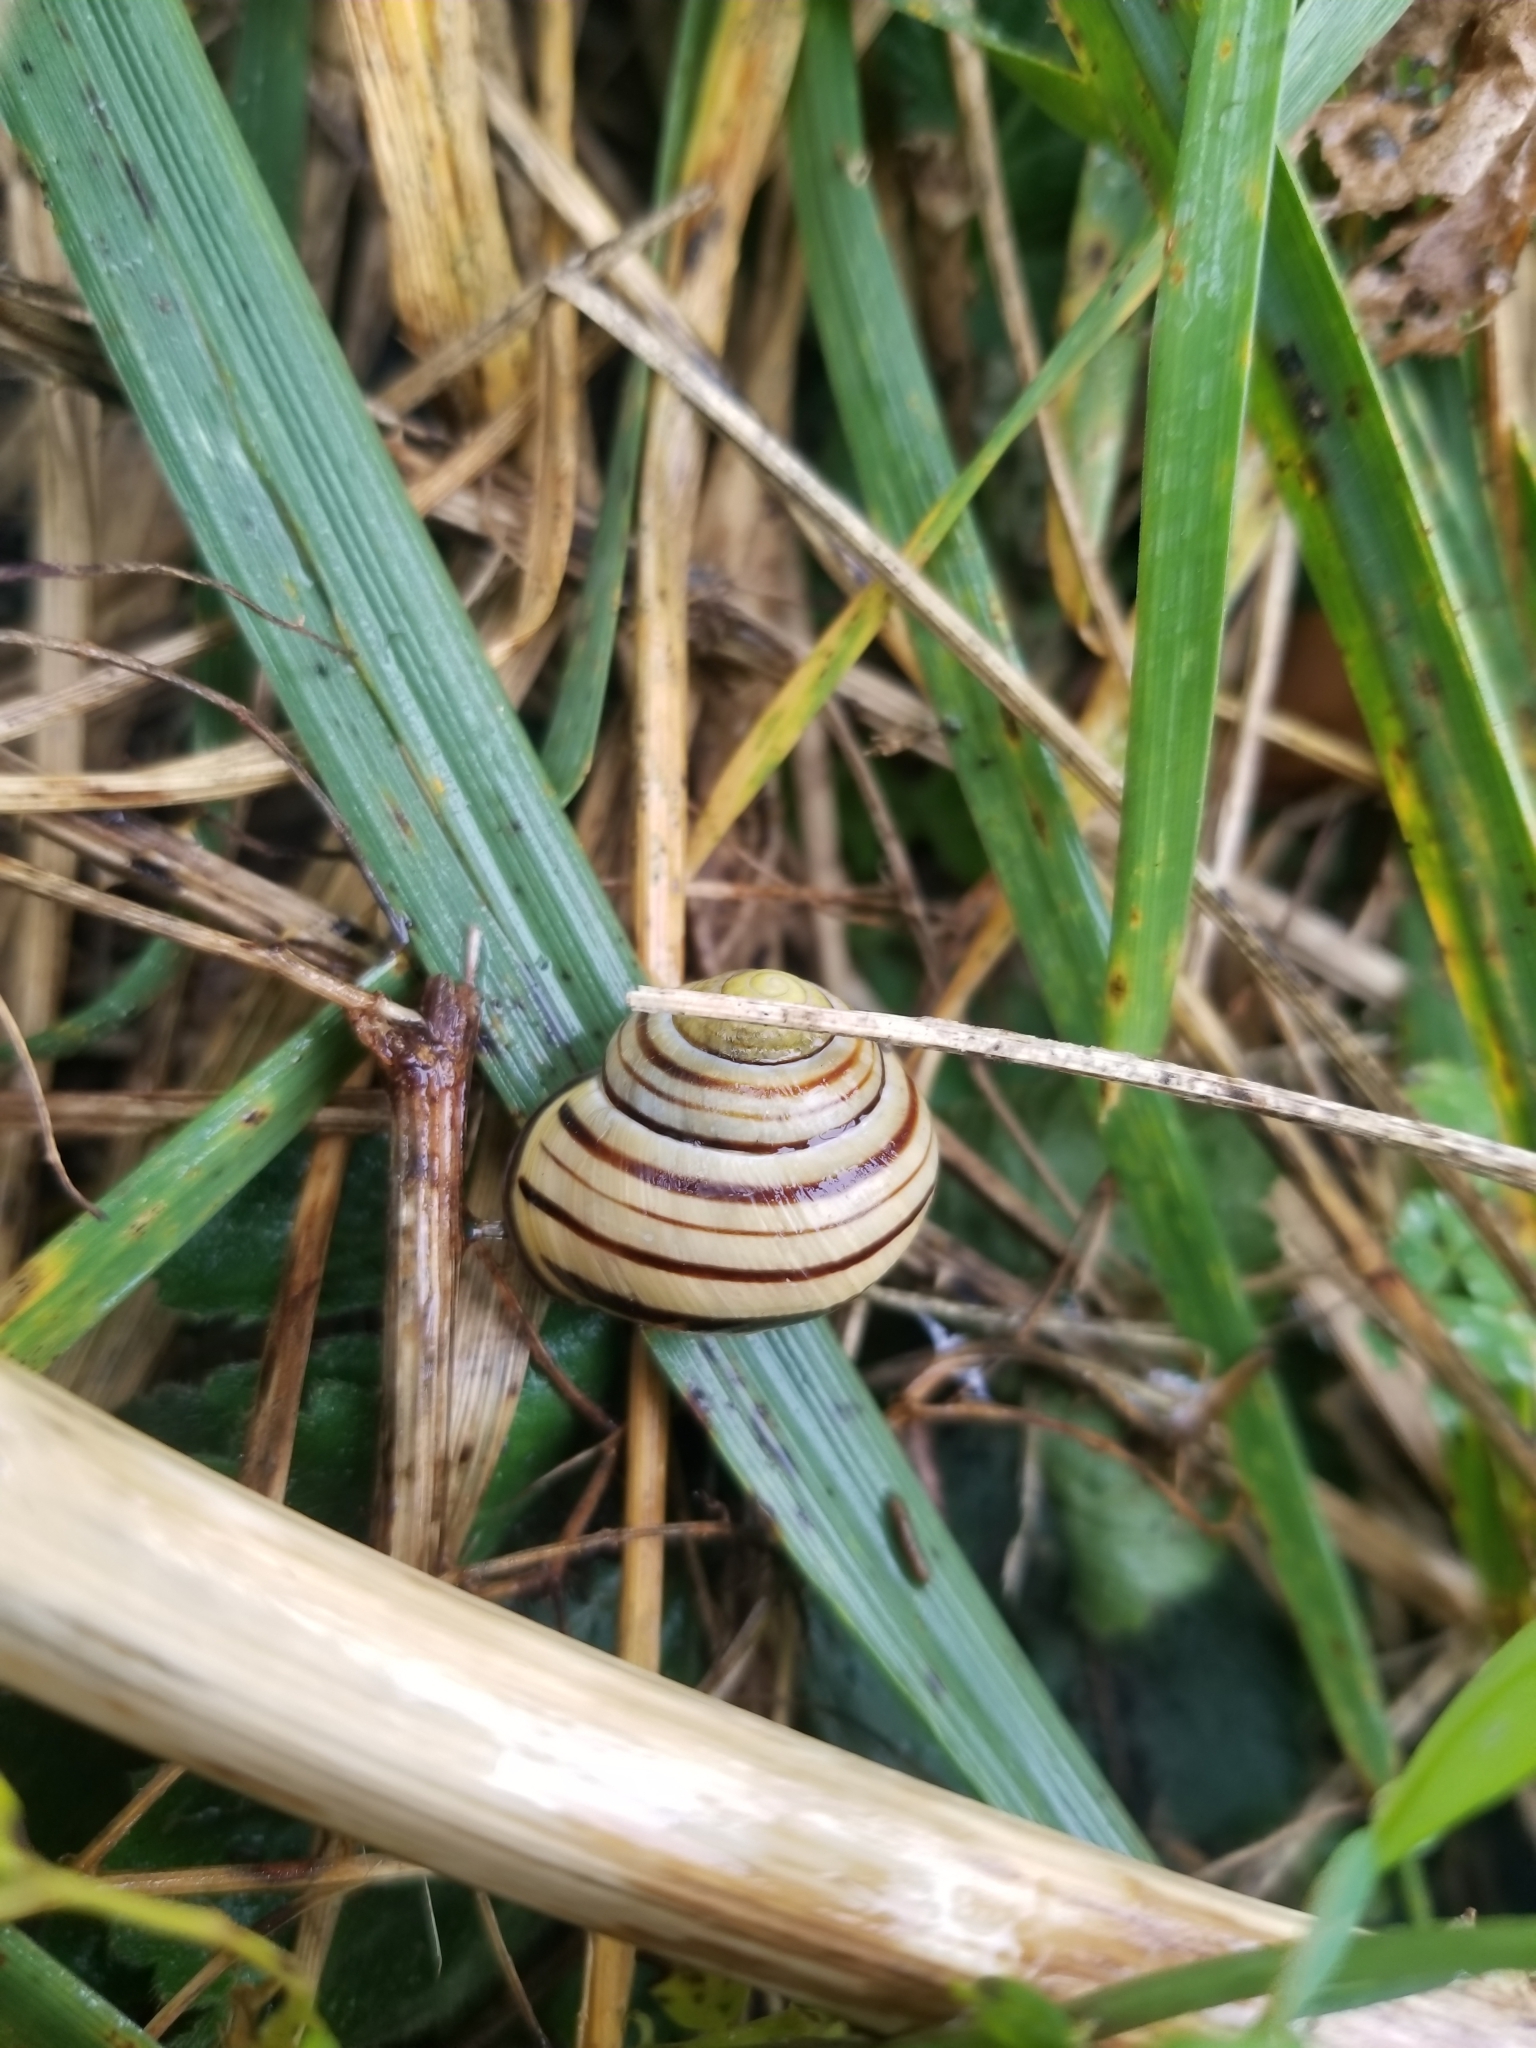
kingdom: Animalia
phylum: Mollusca
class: Gastropoda
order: Stylommatophora
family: Helicidae
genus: Cepaea
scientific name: Cepaea nemoralis
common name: Grovesnail
